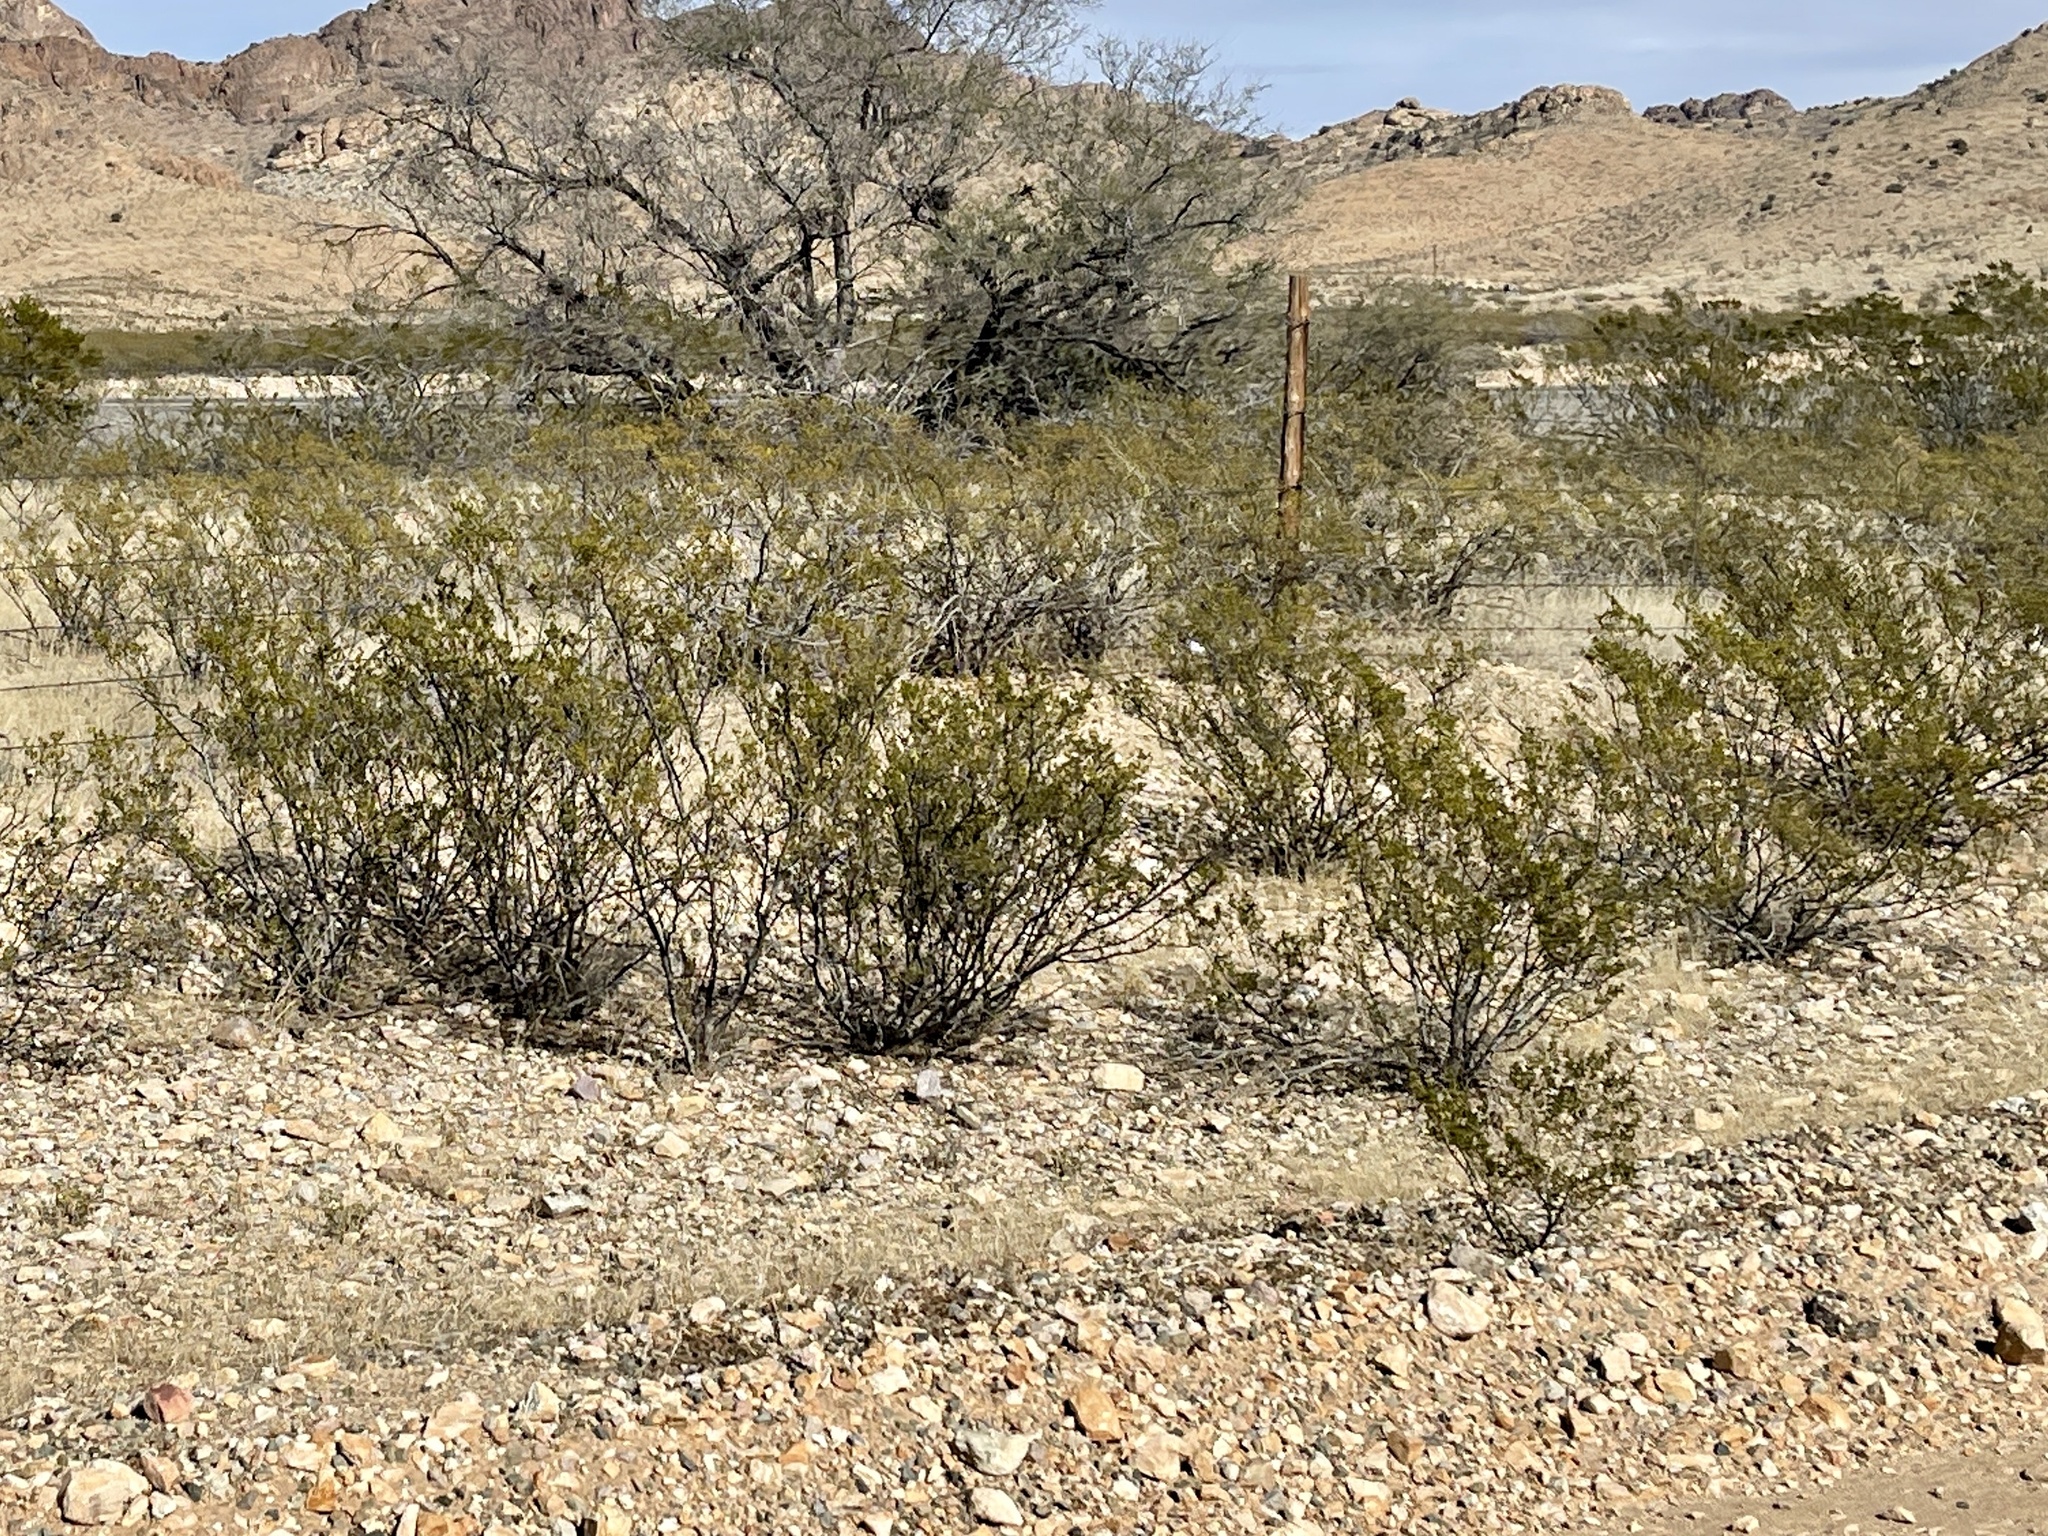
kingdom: Plantae
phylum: Tracheophyta
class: Magnoliopsida
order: Zygophyllales
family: Zygophyllaceae
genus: Larrea
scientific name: Larrea tridentata
